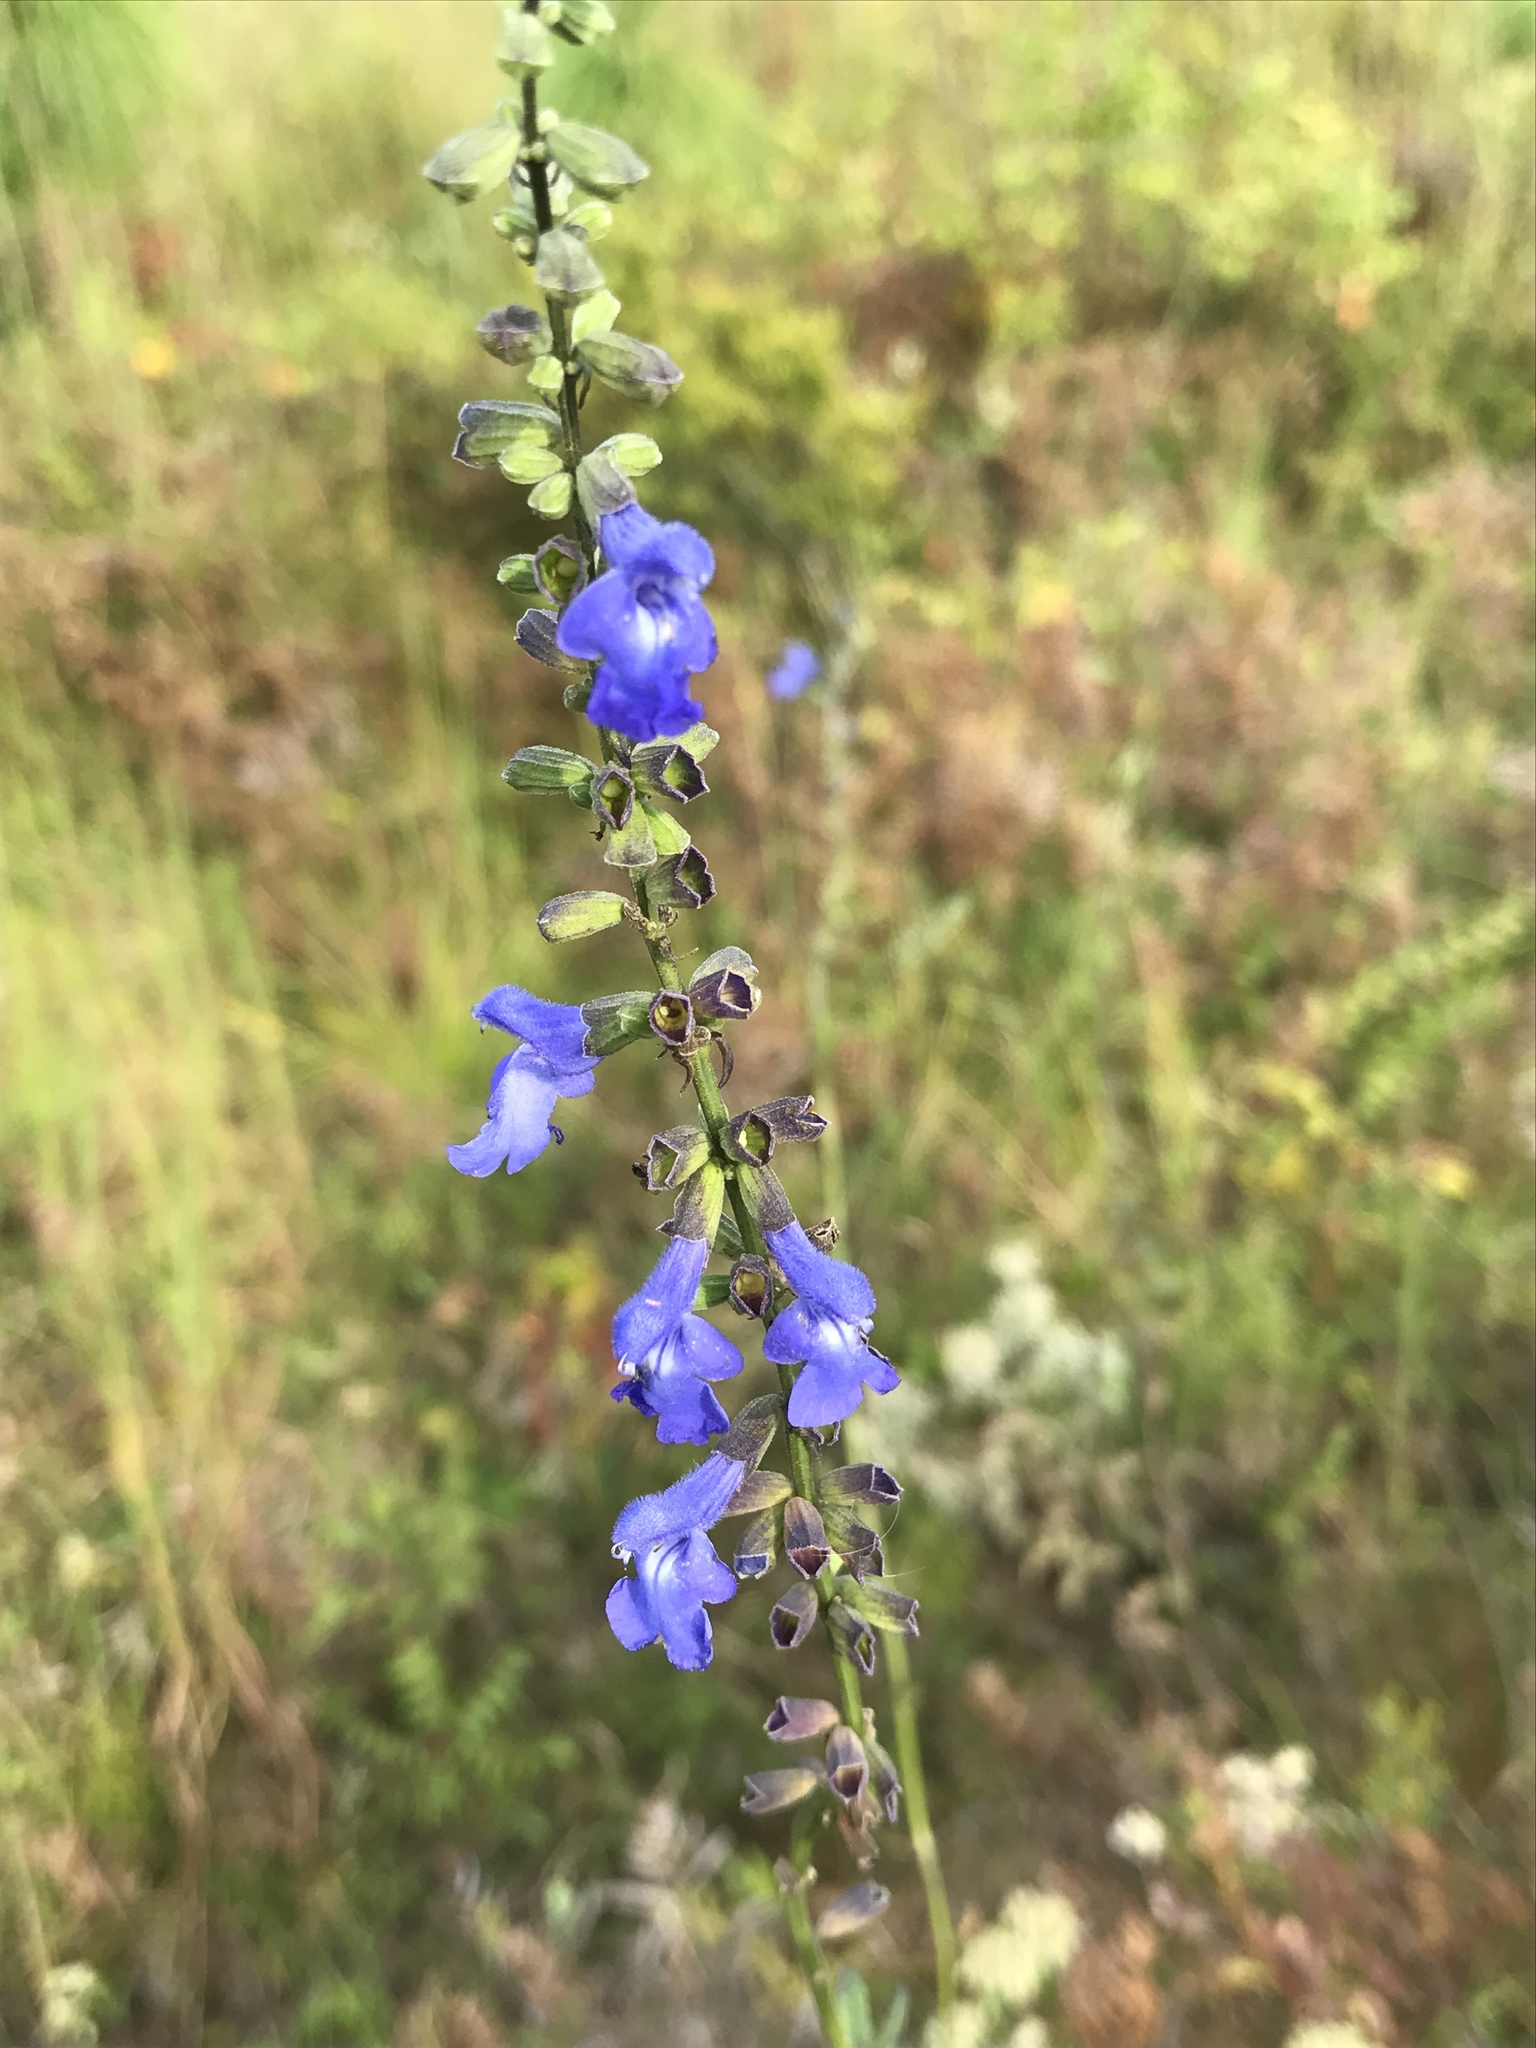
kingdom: Plantae
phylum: Tracheophyta
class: Magnoliopsida
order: Lamiales
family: Lamiaceae
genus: Salvia
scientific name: Salvia azurea
